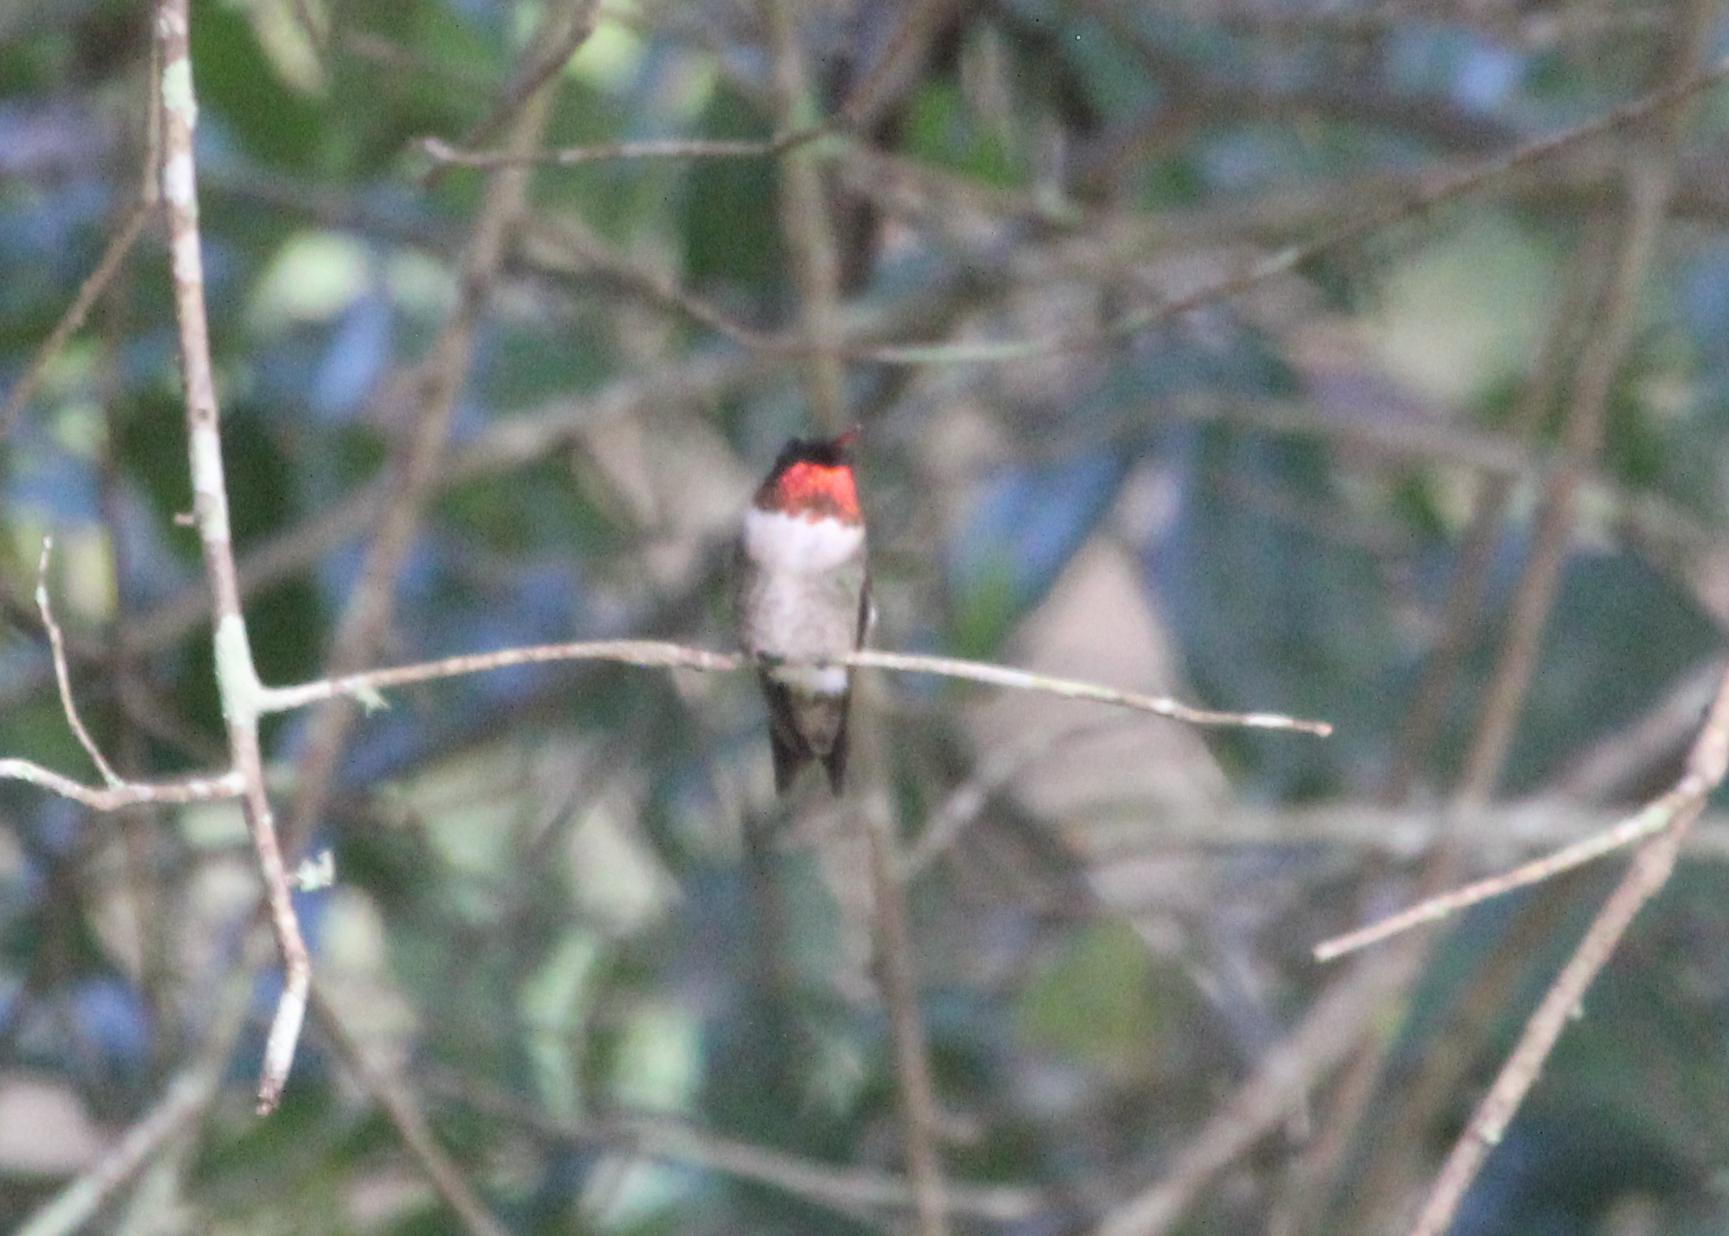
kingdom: Animalia
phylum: Chordata
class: Aves
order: Apodiformes
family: Trochilidae
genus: Archilochus
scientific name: Archilochus colubris
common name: Ruby-throated hummingbird
